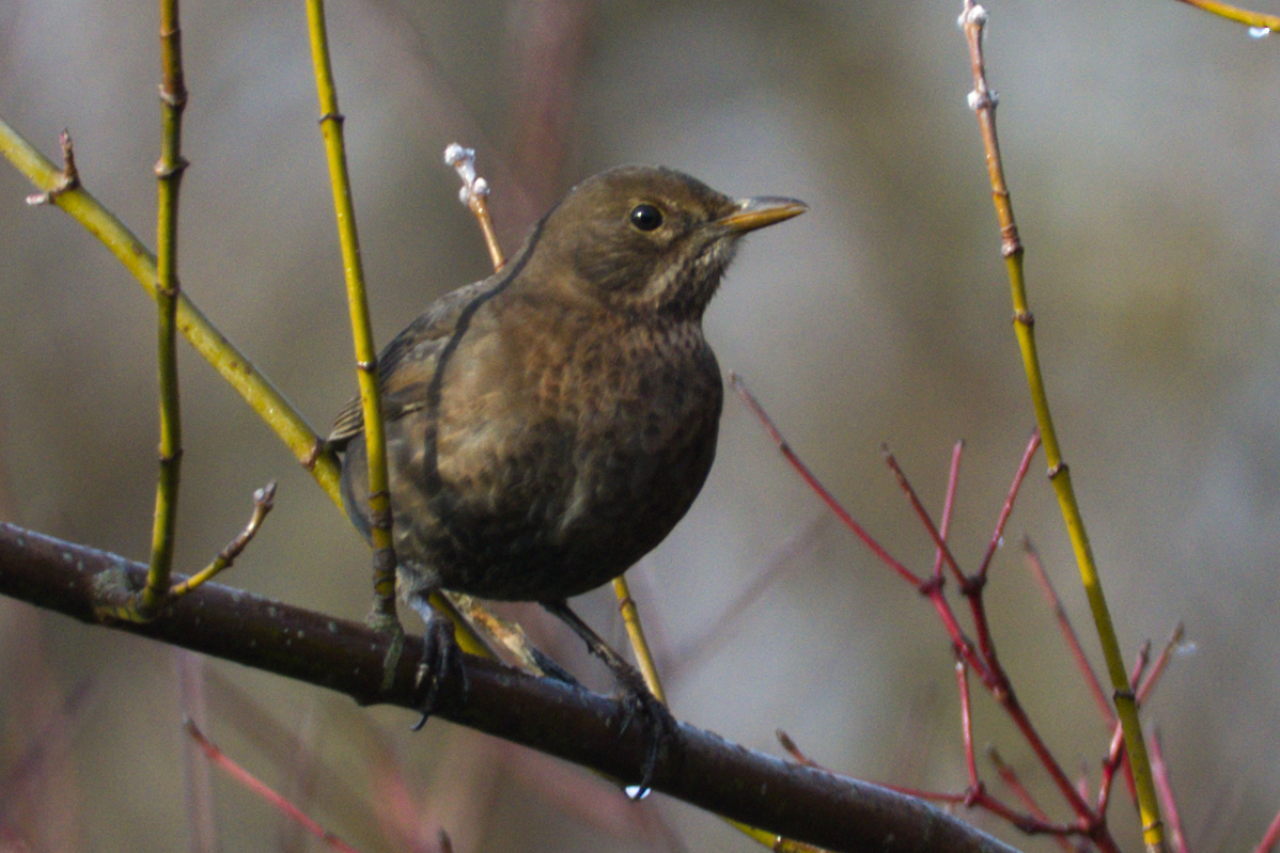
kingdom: Animalia
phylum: Chordata
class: Aves
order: Passeriformes
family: Turdidae
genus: Turdus
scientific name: Turdus merula
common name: Common blackbird
